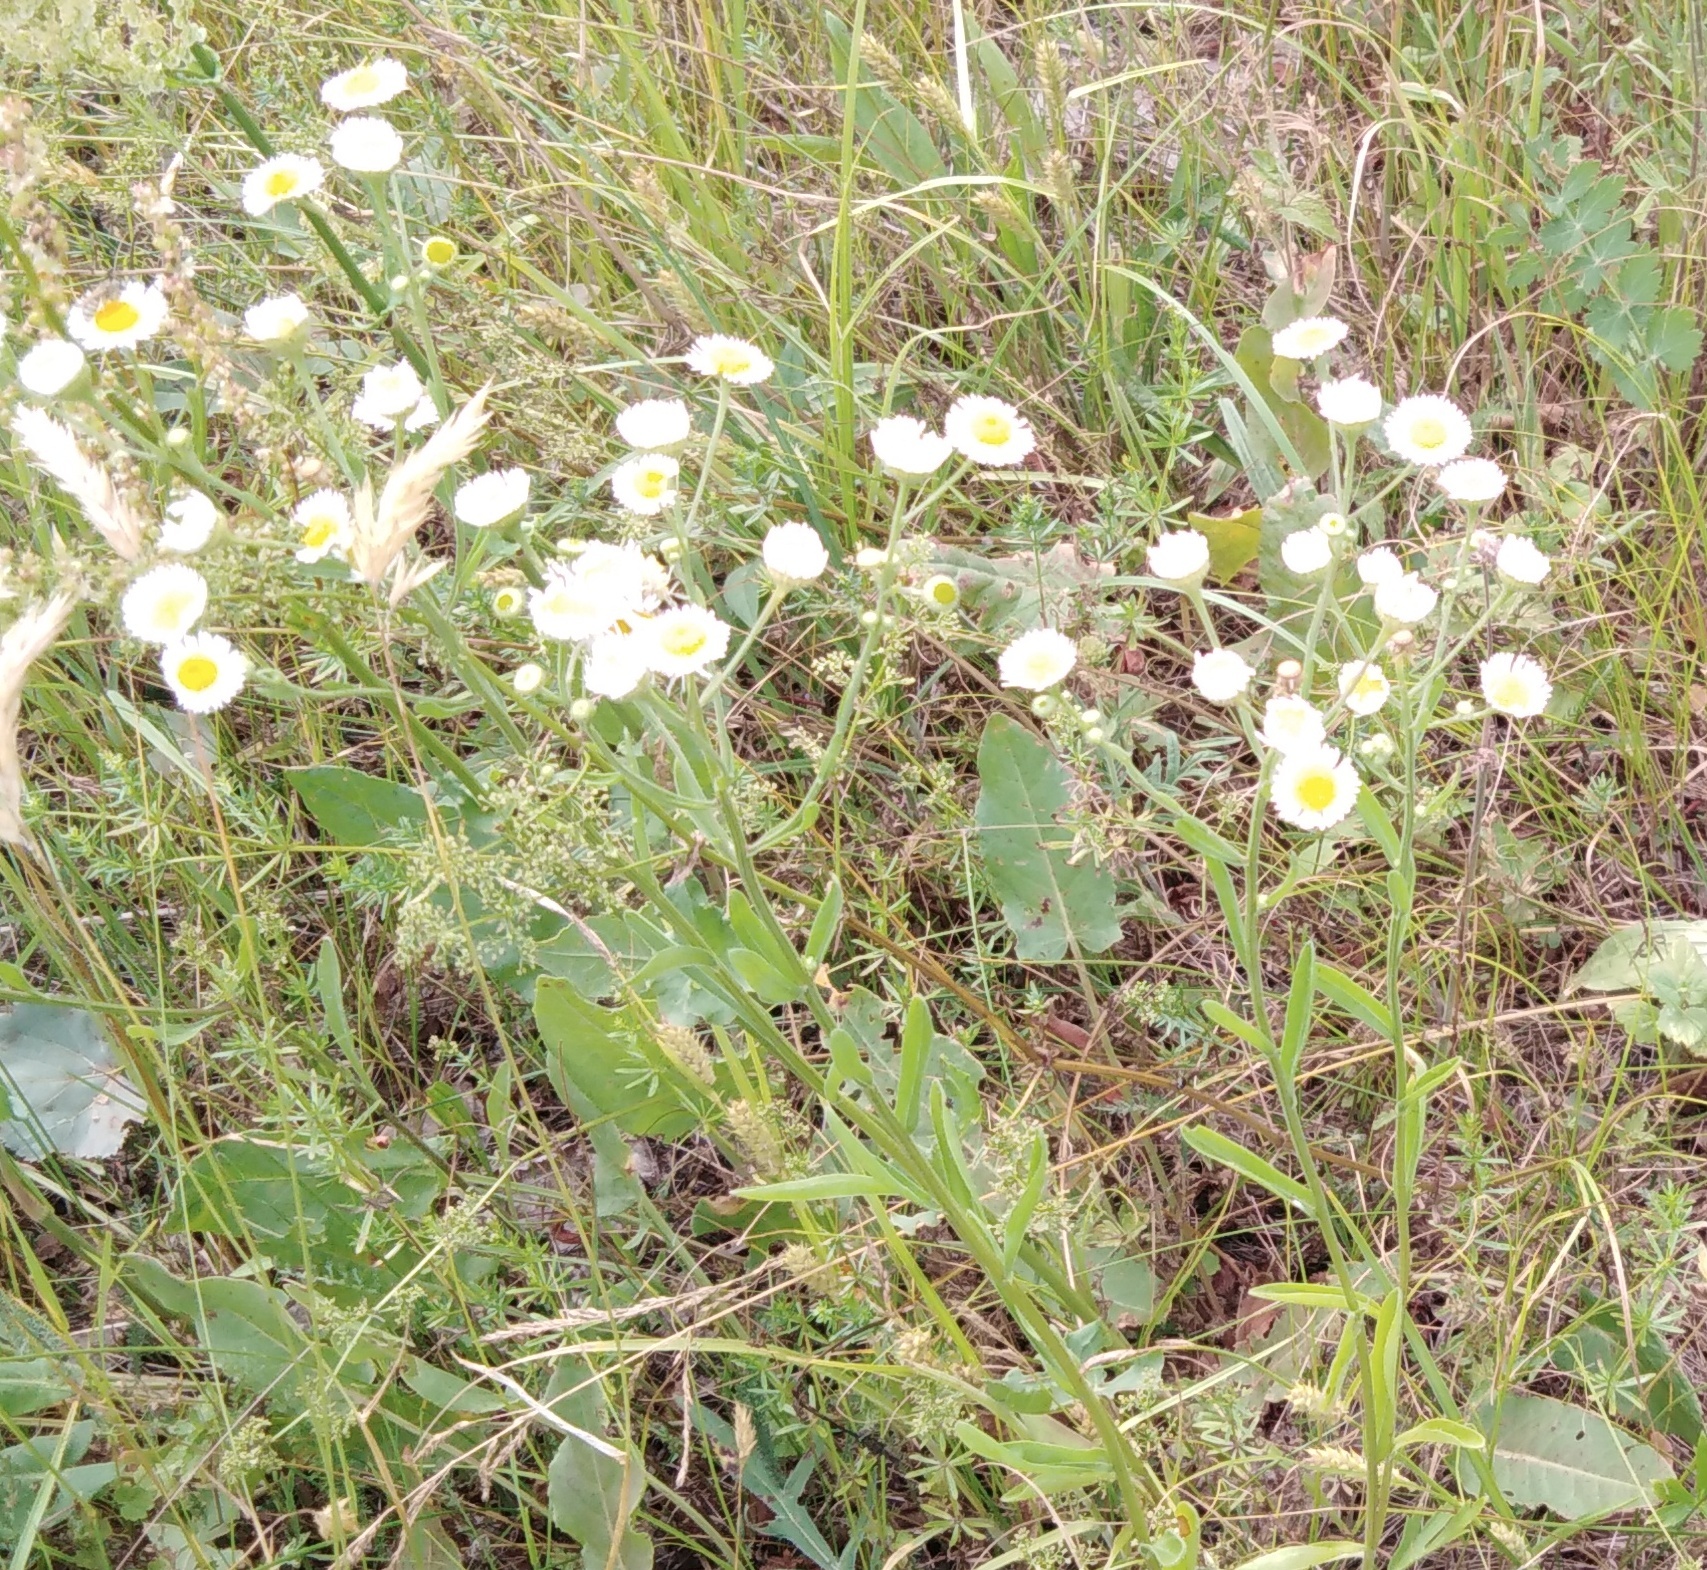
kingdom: Plantae
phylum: Tracheophyta
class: Magnoliopsida
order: Asterales
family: Asteraceae
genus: Erigeron
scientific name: Erigeron annuus
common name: Tall fleabane
